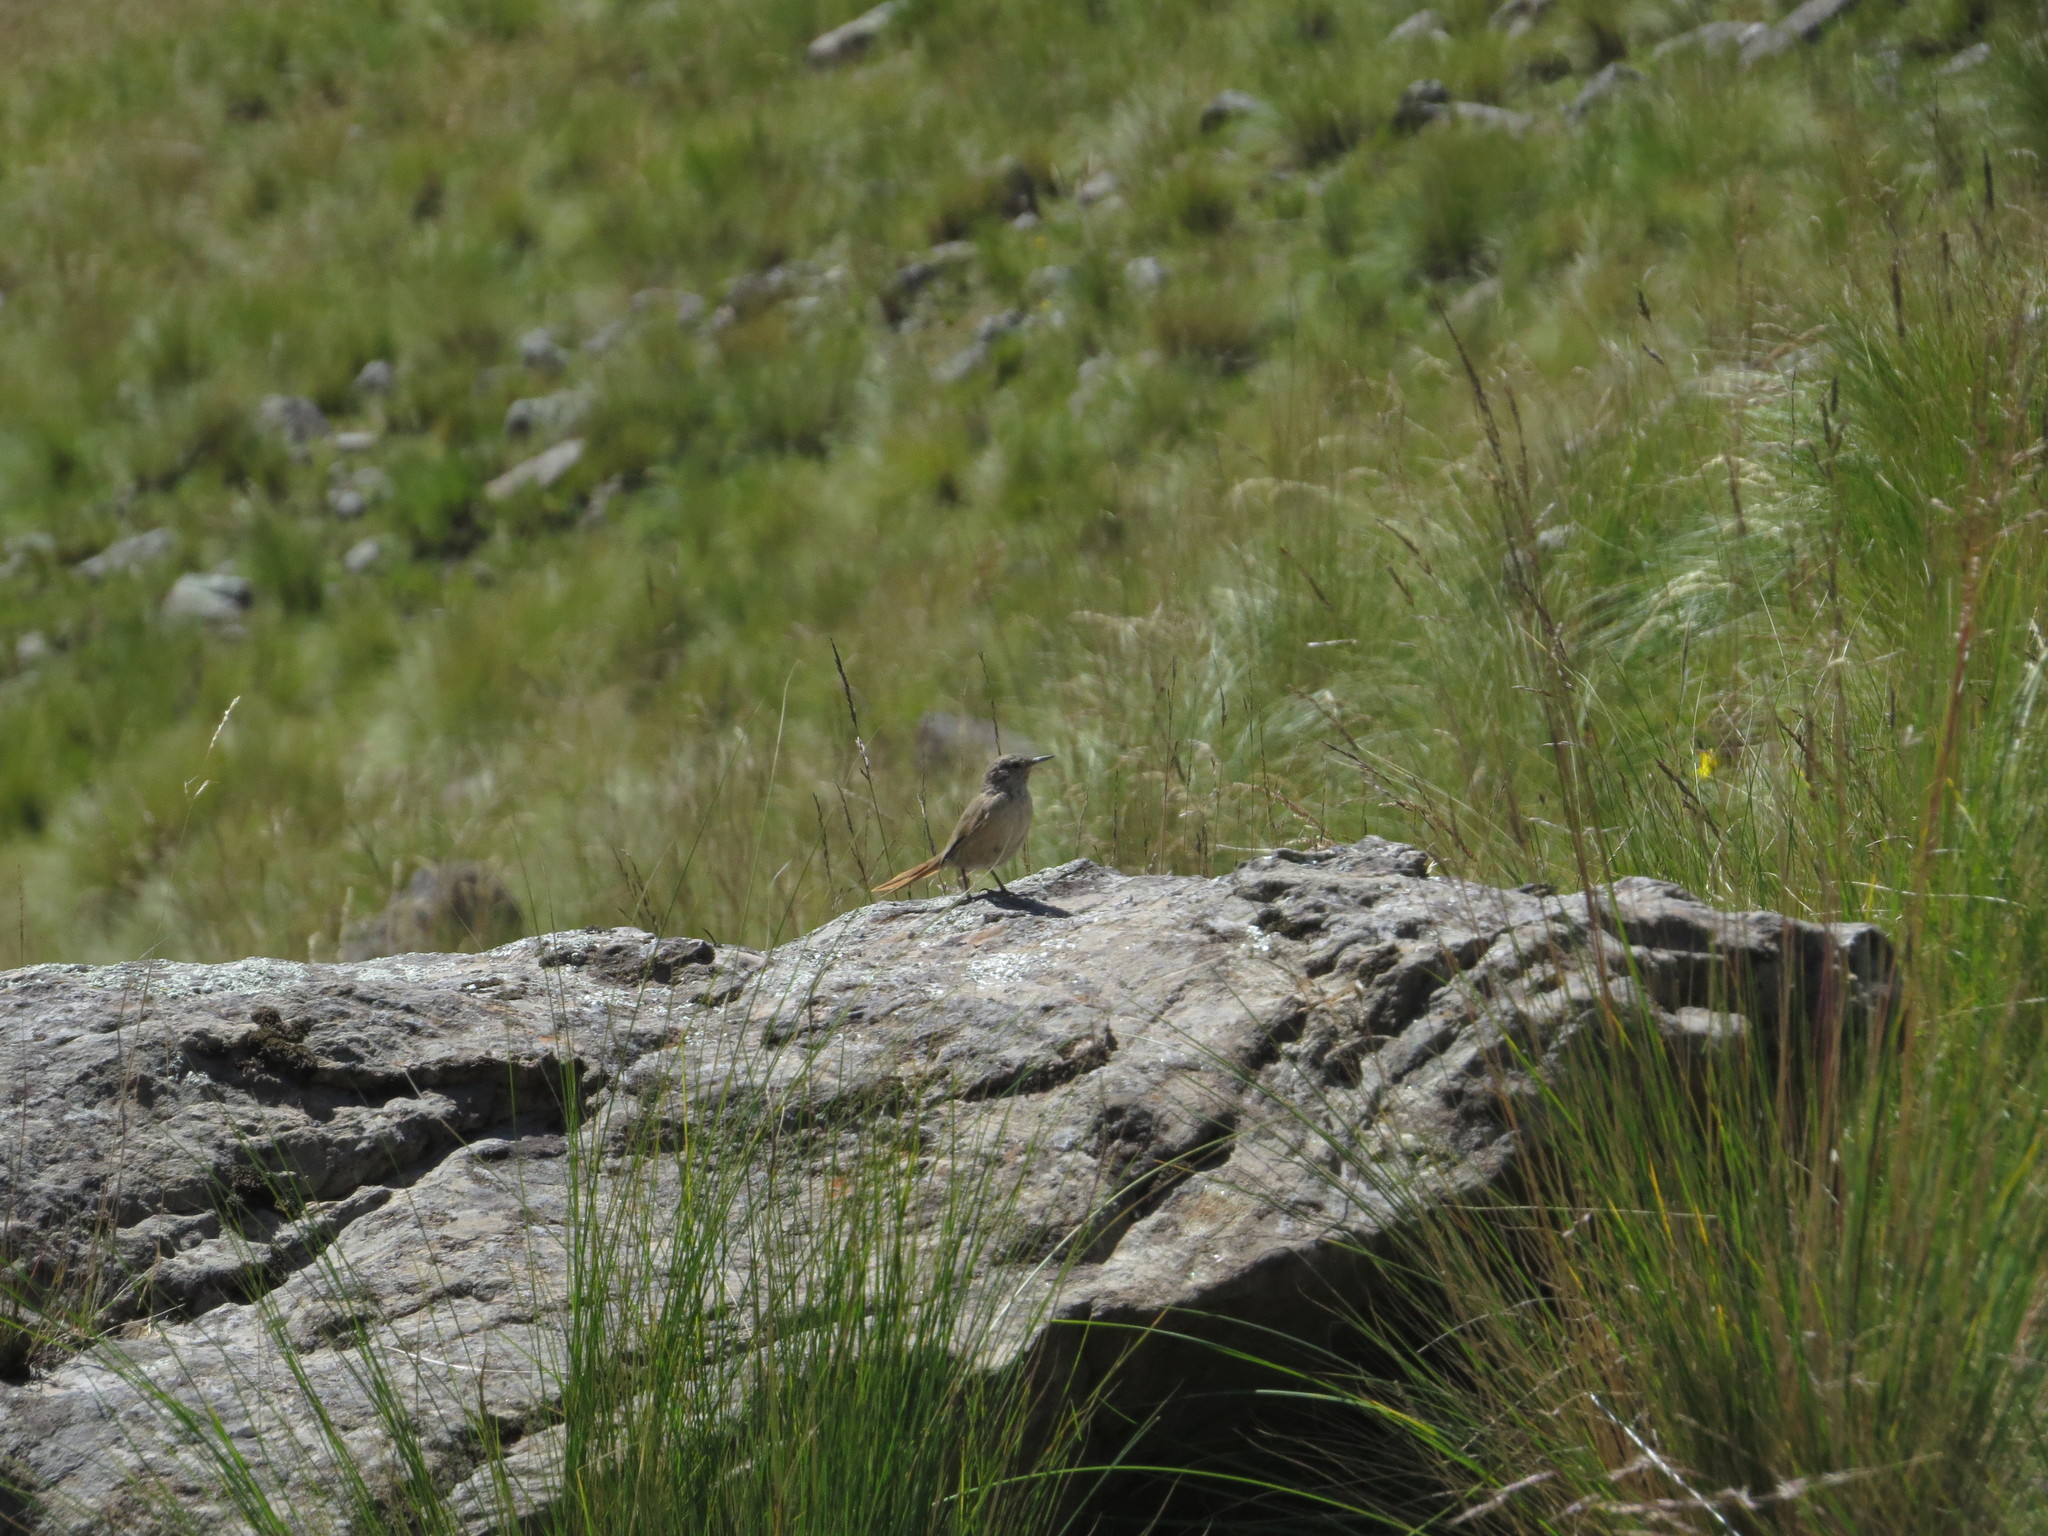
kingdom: Animalia
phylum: Chordata
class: Aves
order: Passeriformes
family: Furnariidae
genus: Phacellodomus
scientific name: Phacellodomus striaticeps
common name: Streak-fronted thornbird
